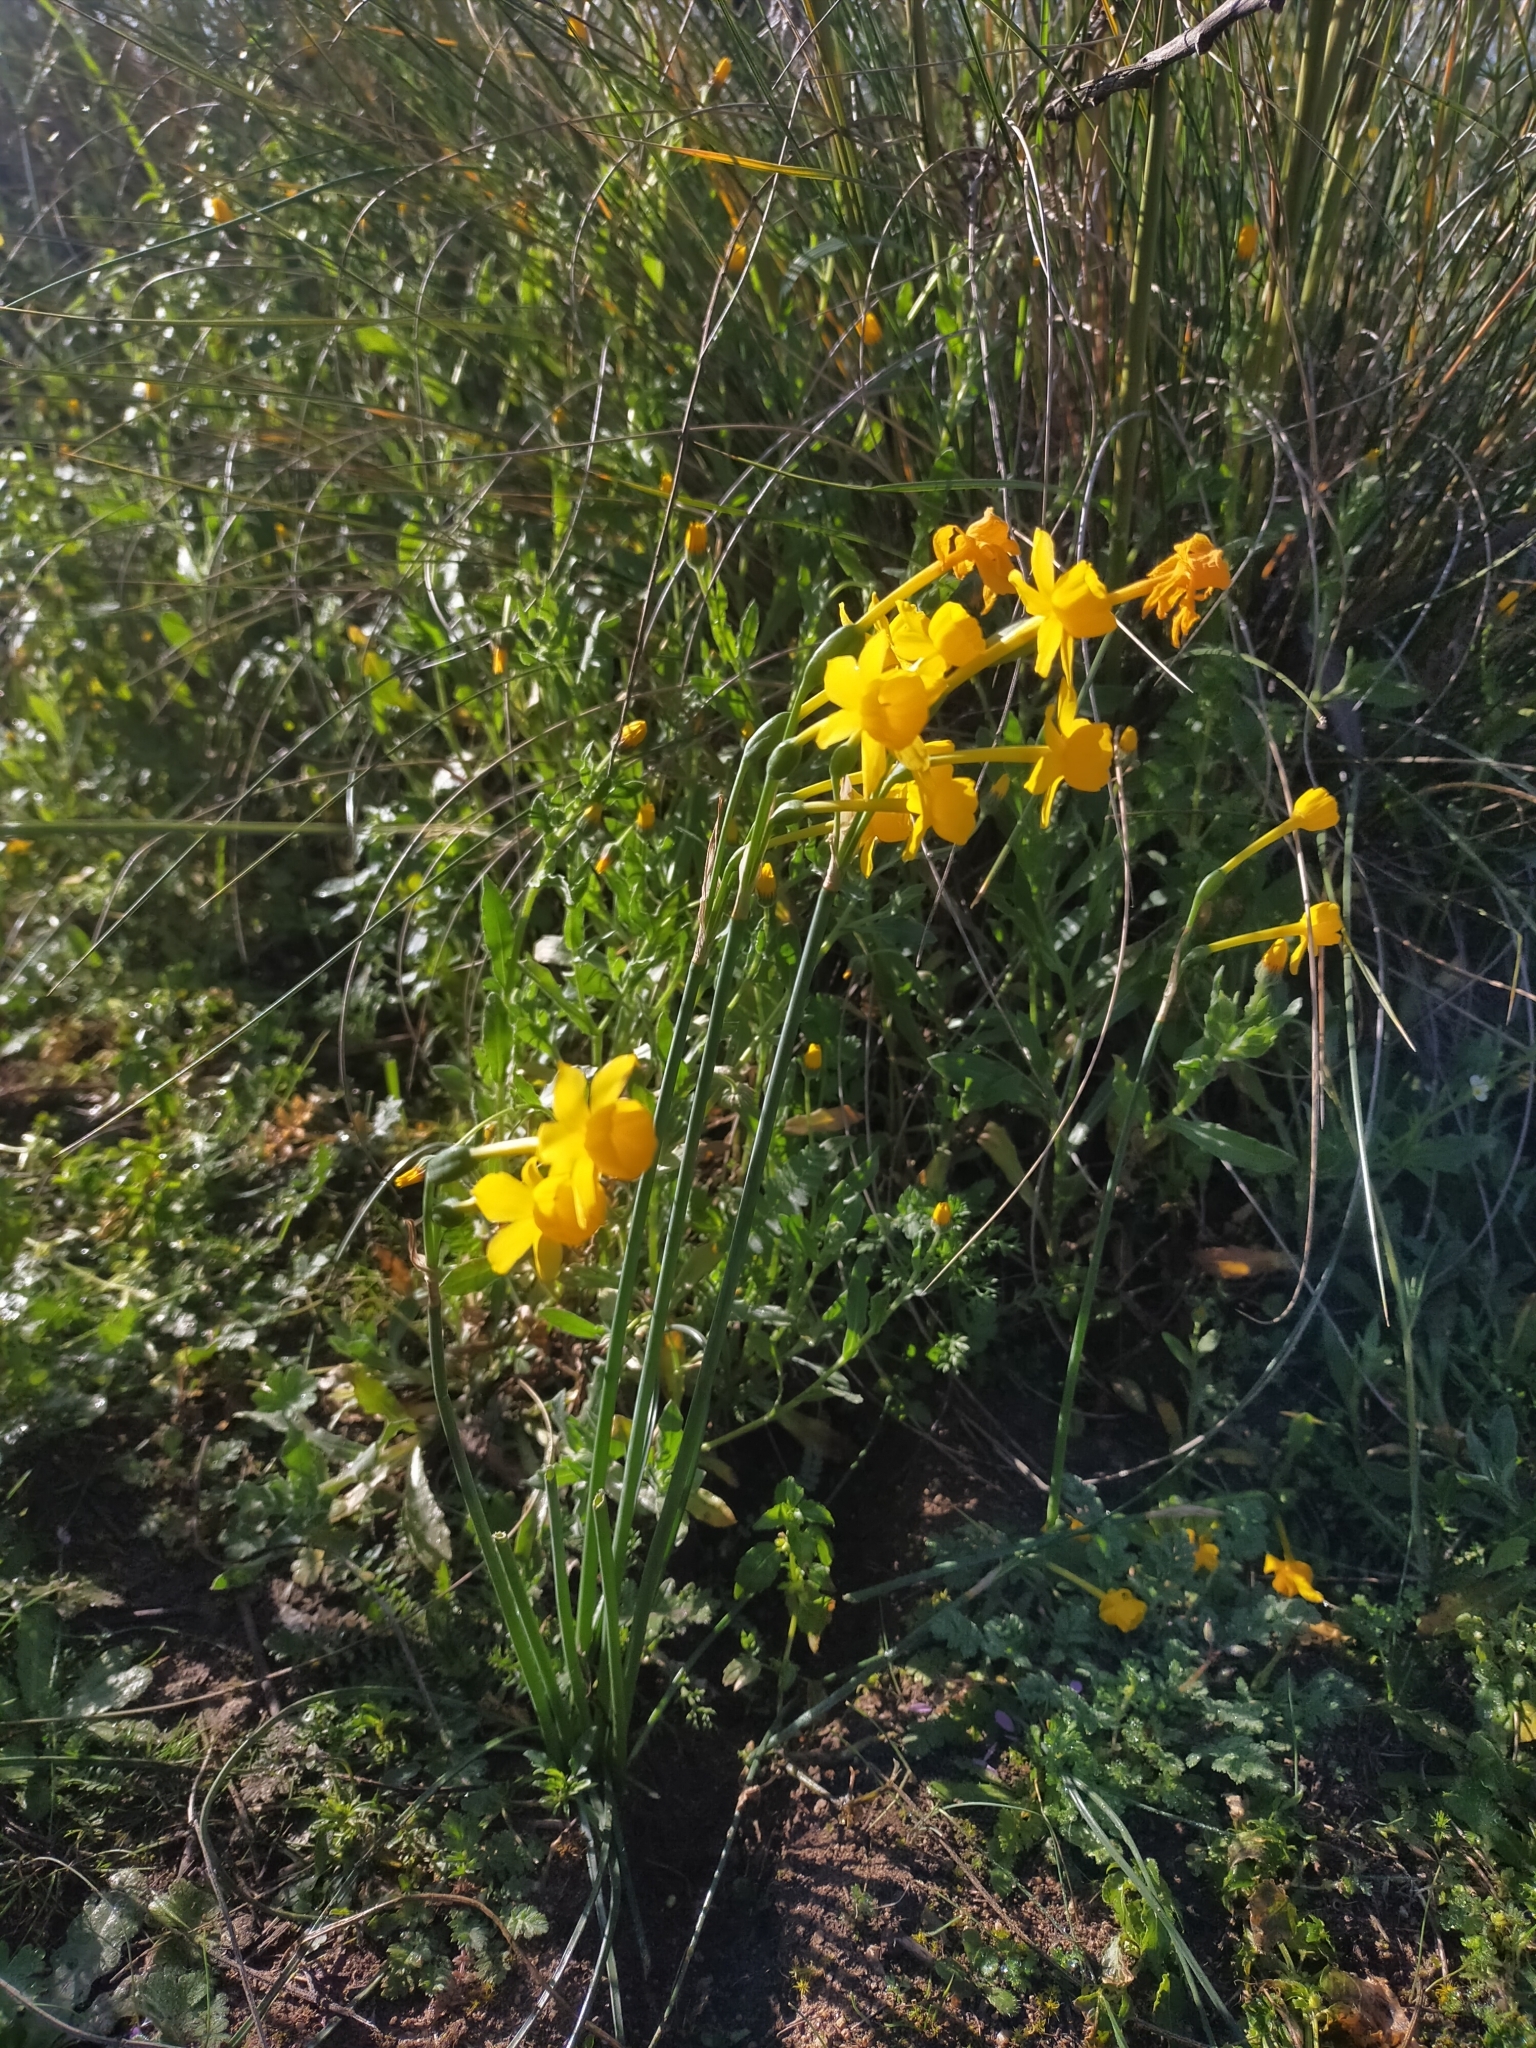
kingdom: Plantae
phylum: Tracheophyta
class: Liliopsida
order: Asparagales
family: Amaryllidaceae
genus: Narcissus
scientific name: Narcissus flavus
